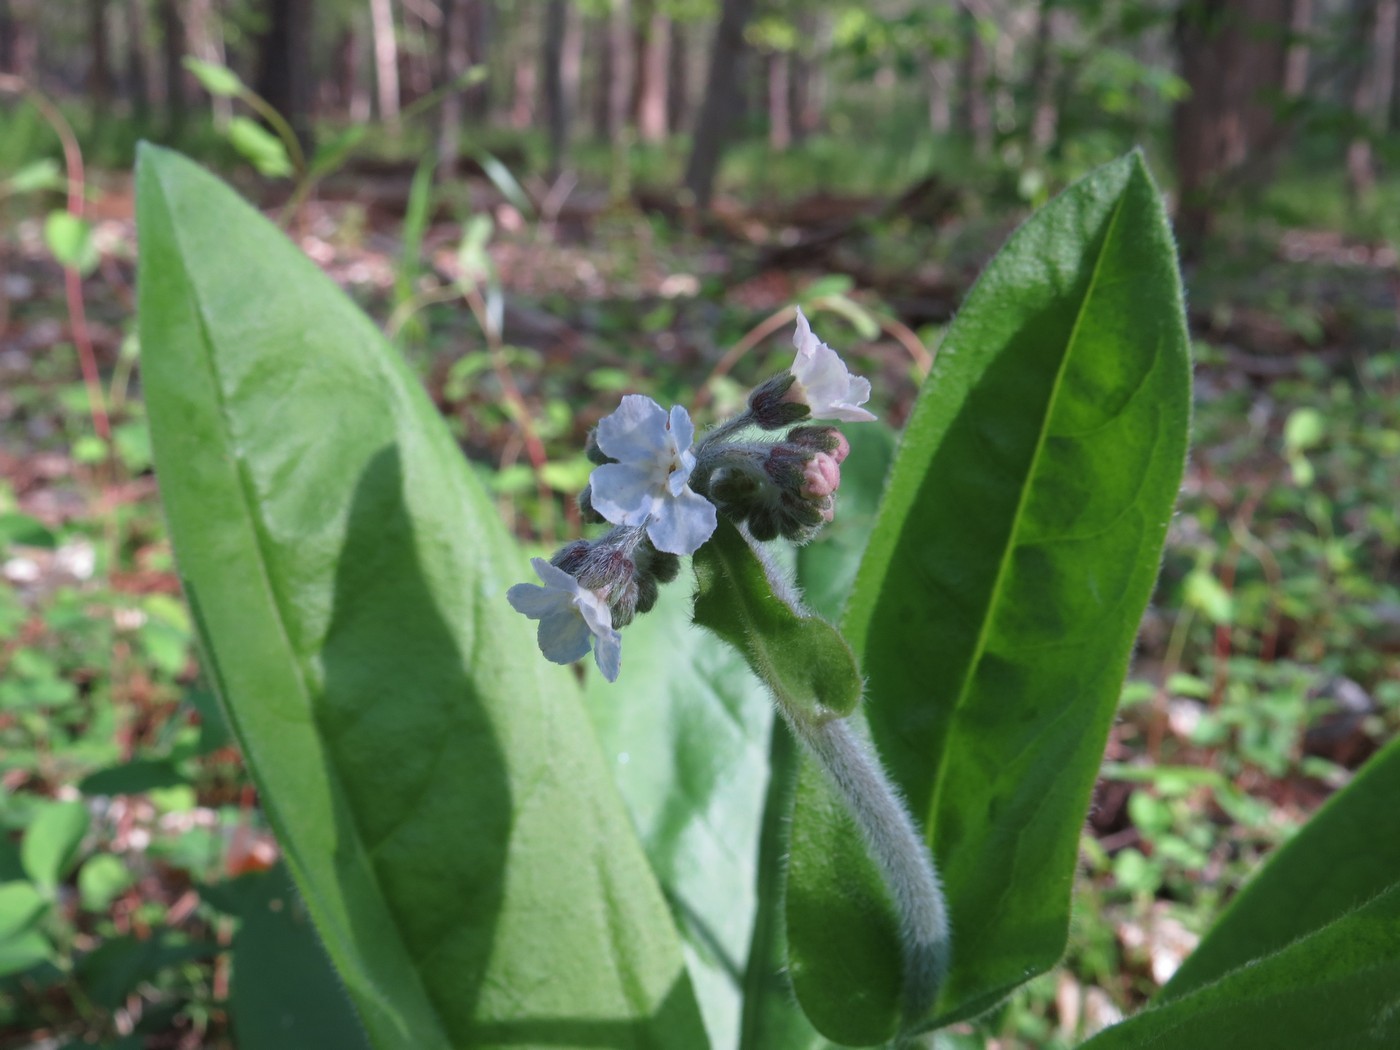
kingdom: Plantae
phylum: Tracheophyta
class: Magnoliopsida
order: Boraginales
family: Boraginaceae
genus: Andersonglossum
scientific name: Andersonglossum virginianum
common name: Wild comfrey
